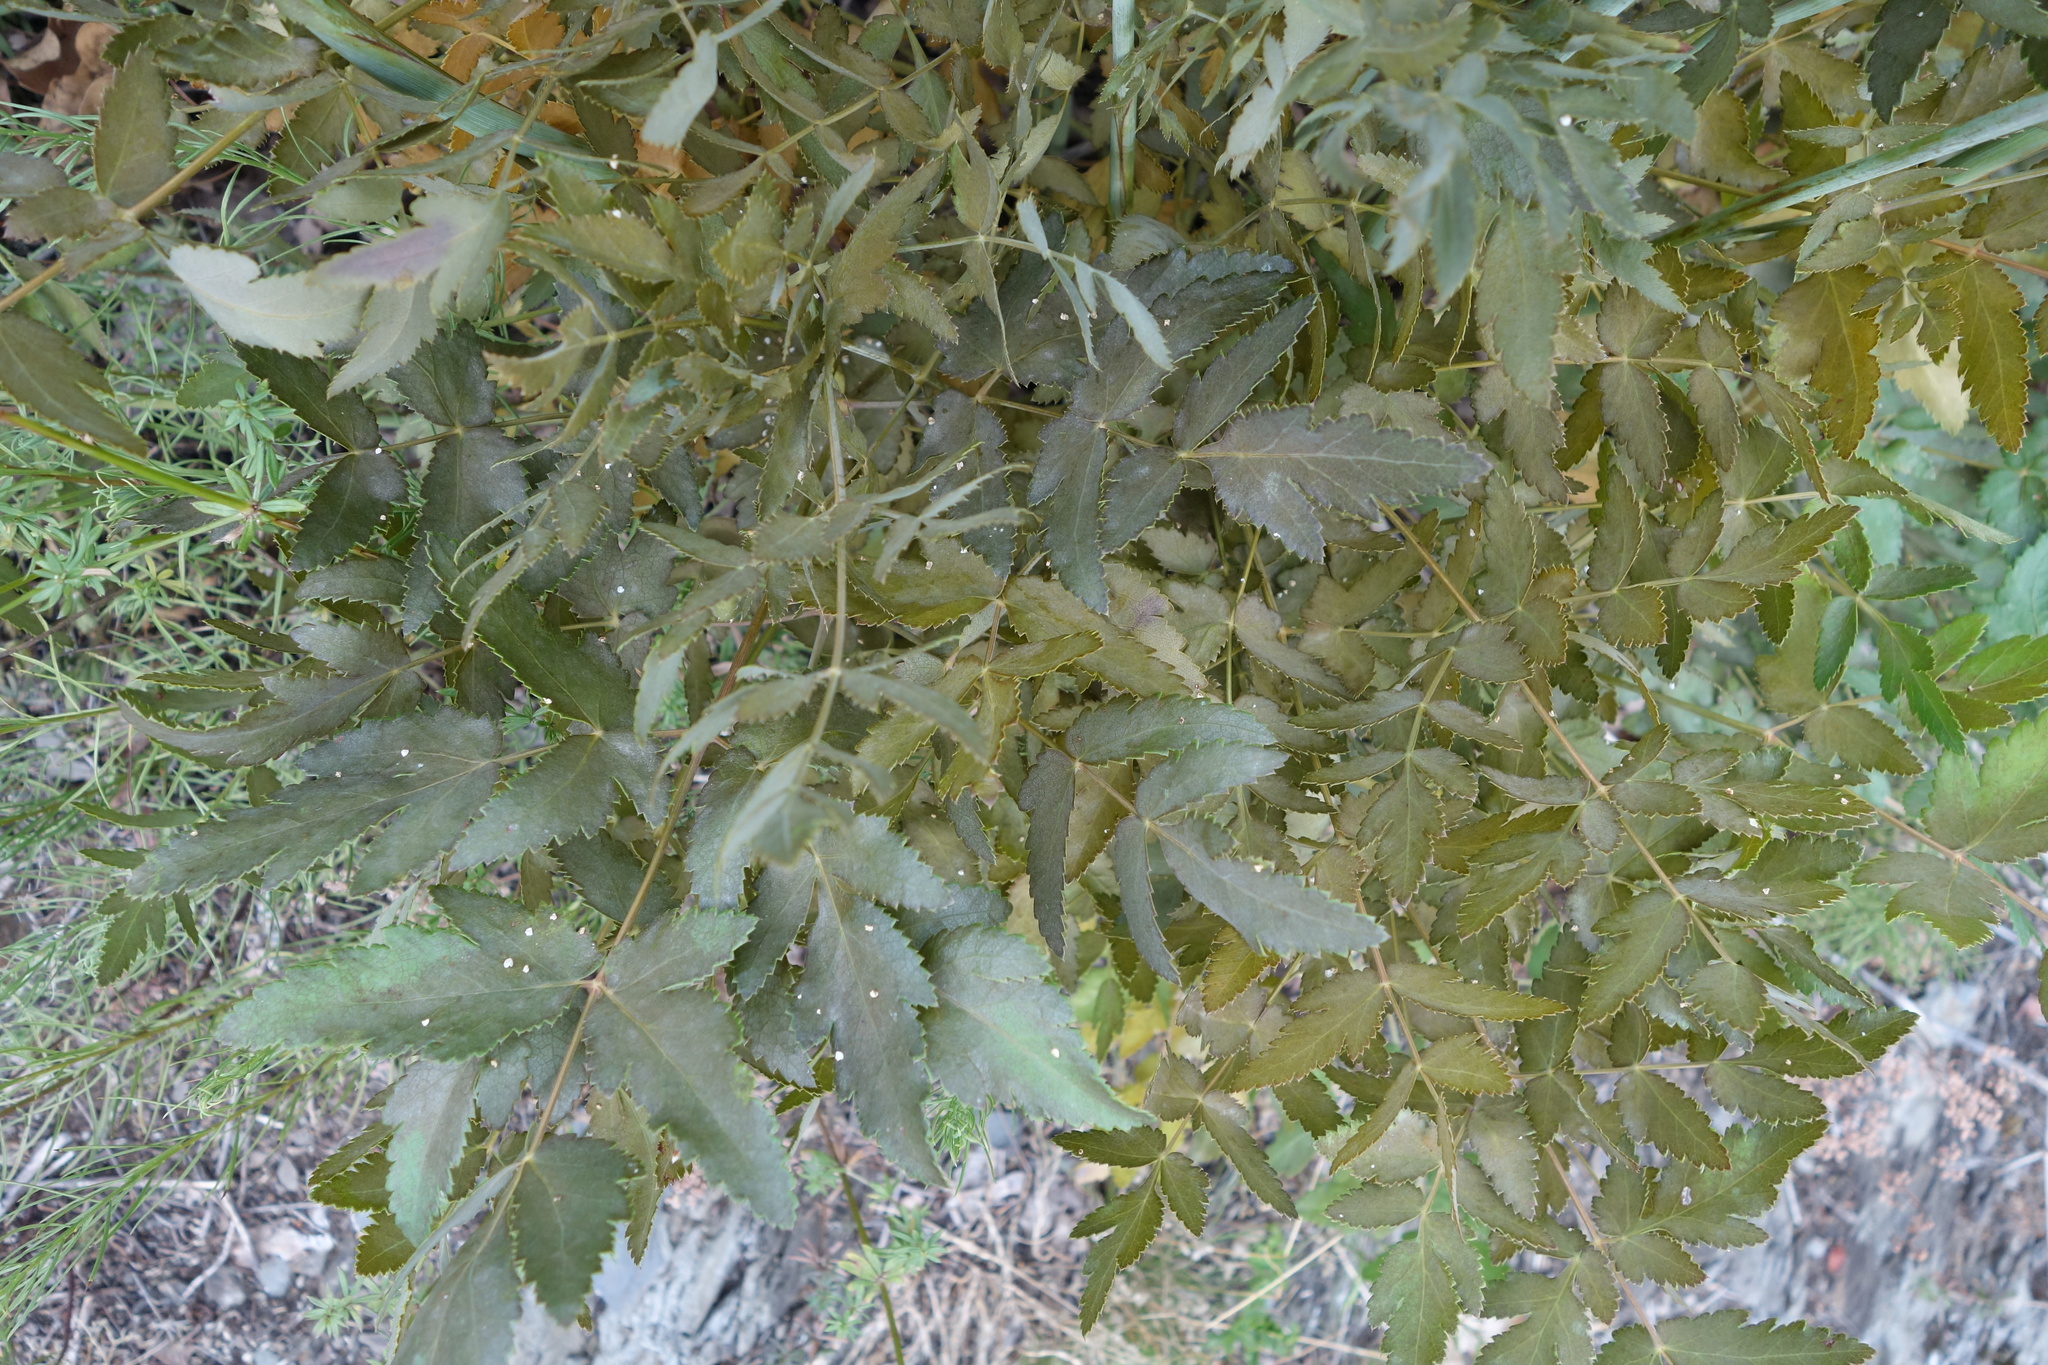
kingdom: Plantae
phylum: Tracheophyta
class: Magnoliopsida
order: Apiales
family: Apiaceae
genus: Cervaria
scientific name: Cervaria rivini
